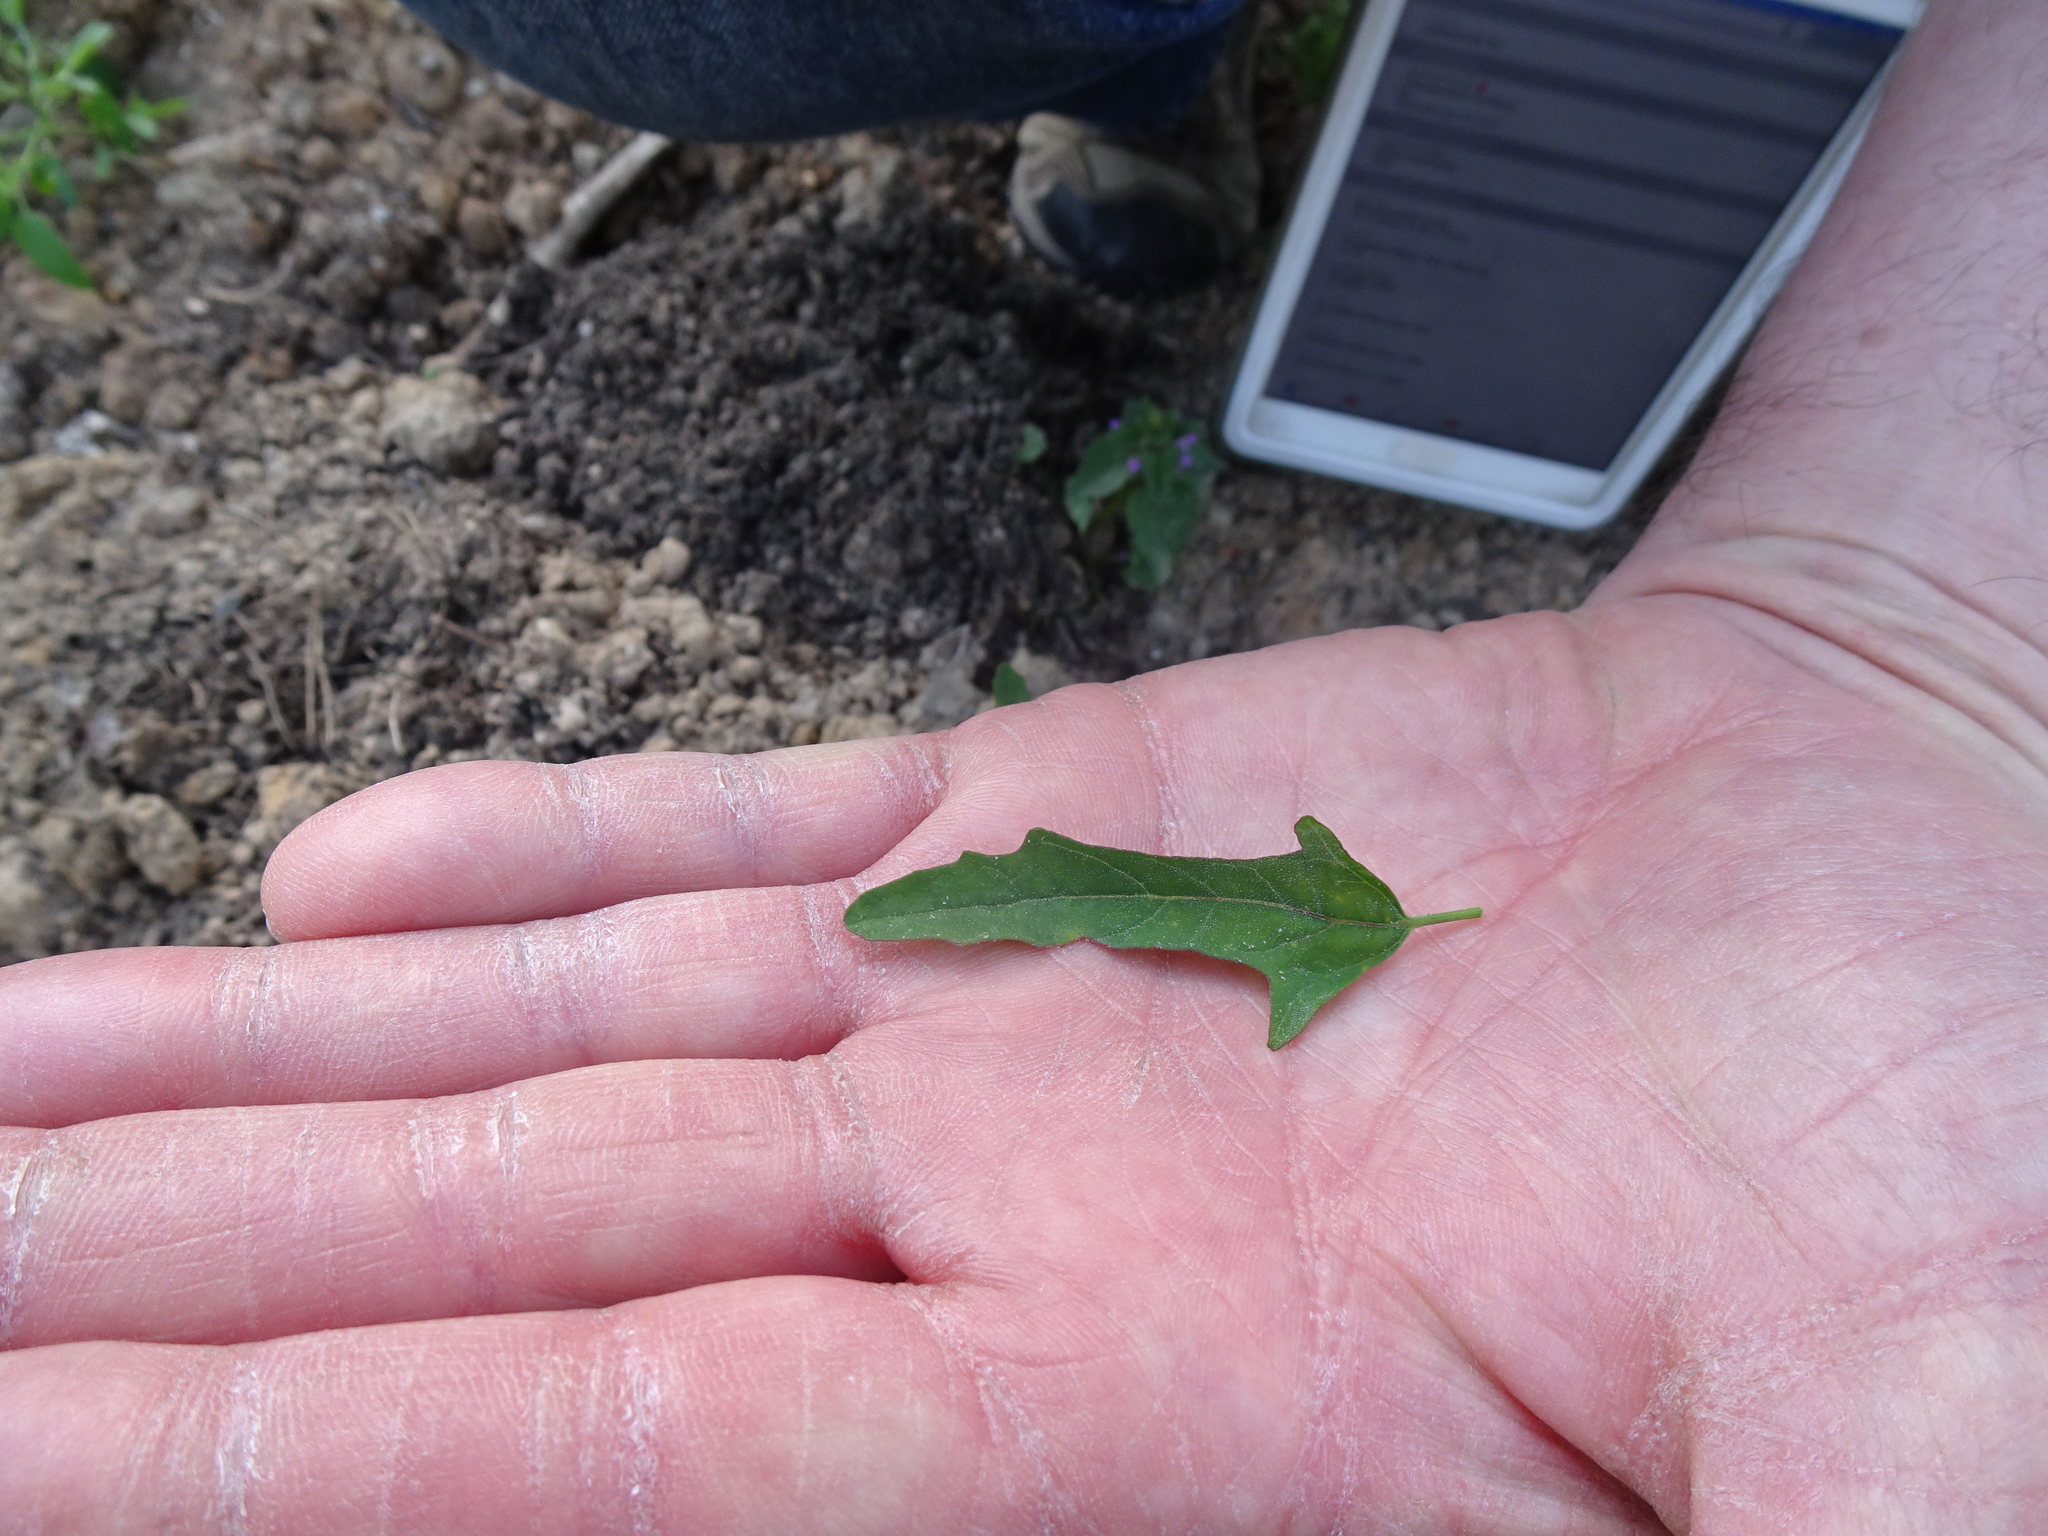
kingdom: Plantae
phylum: Tracheophyta
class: Magnoliopsida
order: Caryophyllales
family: Amaranthaceae
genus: Chenopodium
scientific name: Chenopodium ficifolium
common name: Fig-leaved goosefoot
